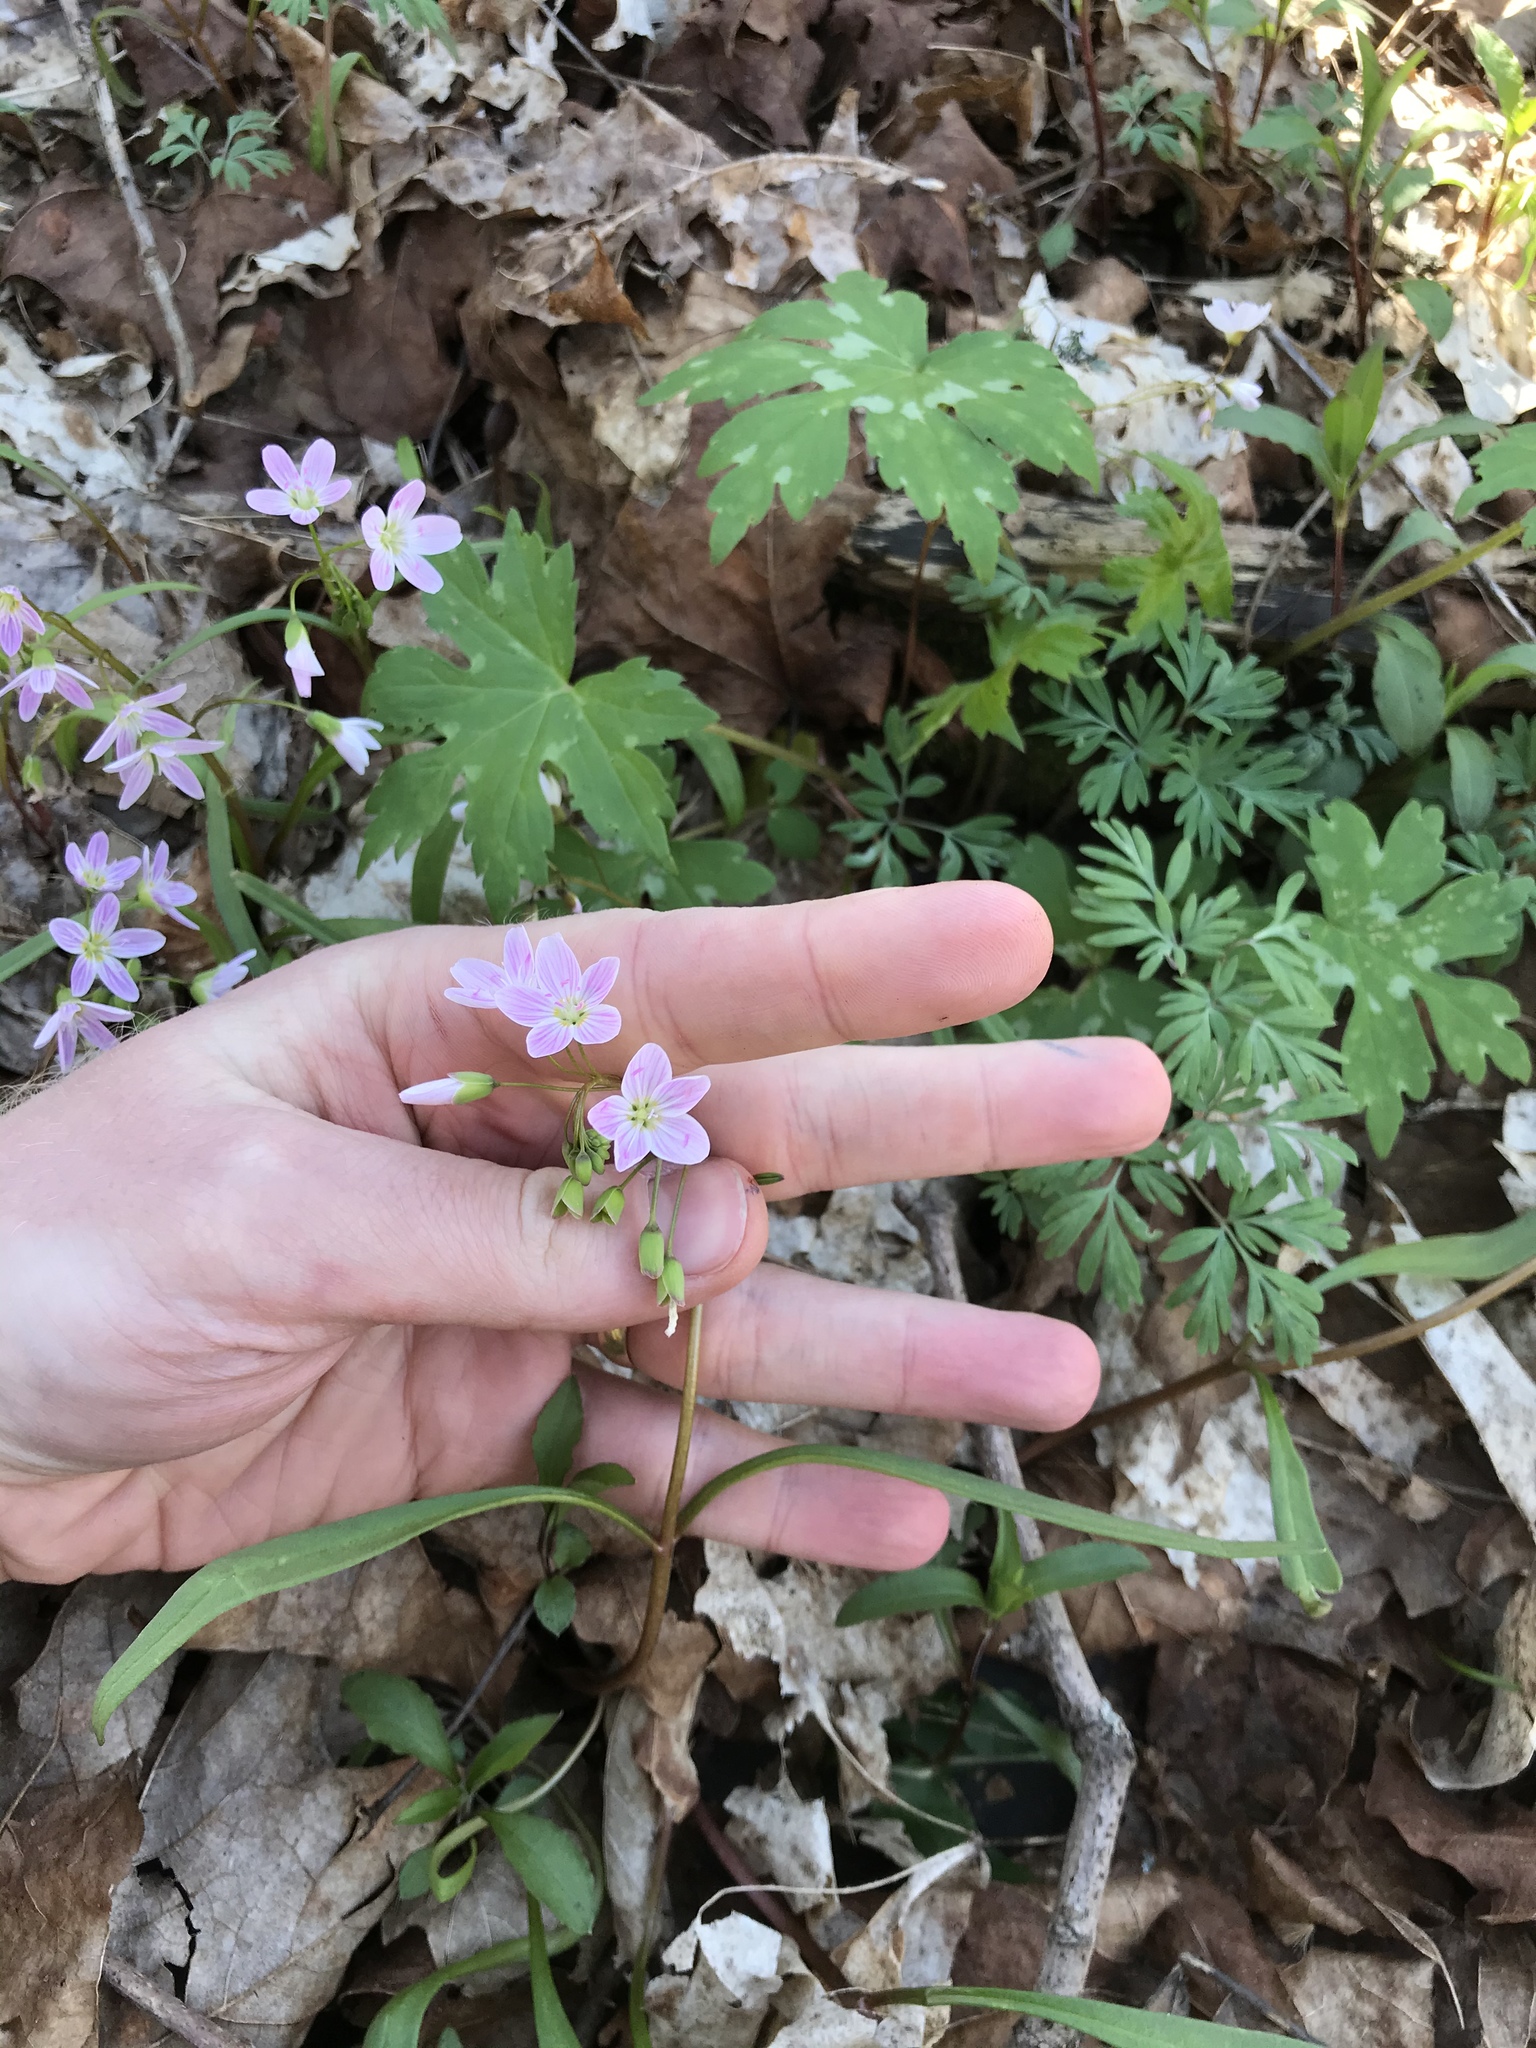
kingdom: Plantae
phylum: Tracheophyta
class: Magnoliopsida
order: Caryophyllales
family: Montiaceae
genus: Claytonia
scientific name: Claytonia virginica
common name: Virginia springbeauty
